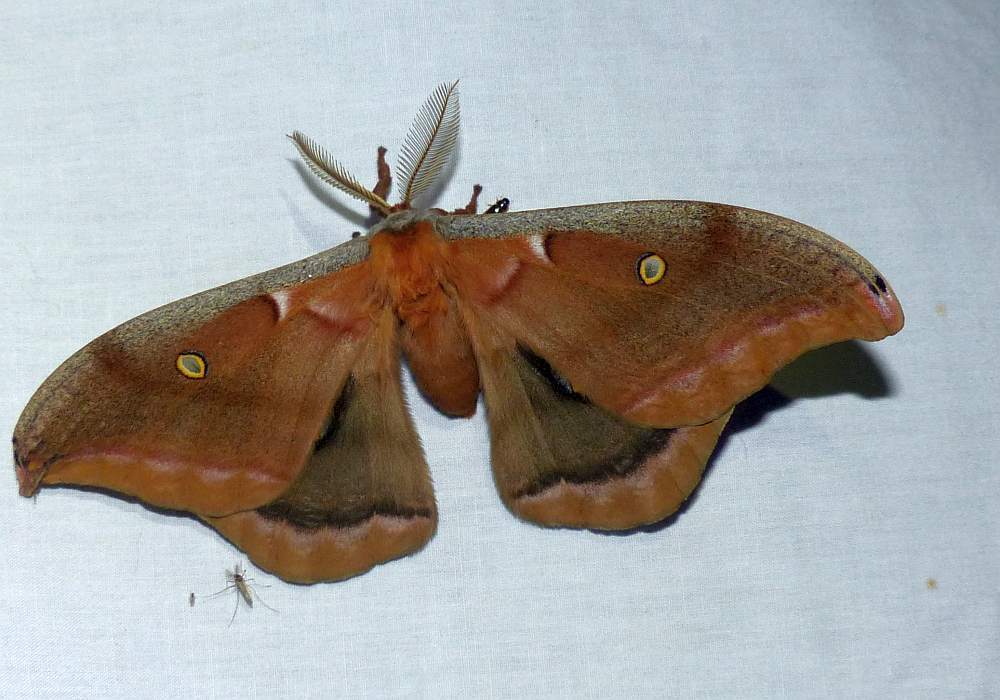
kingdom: Animalia
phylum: Arthropoda
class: Insecta
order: Lepidoptera
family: Saturniidae
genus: Antheraea
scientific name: Antheraea polyphemus
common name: Polyphemus moth
